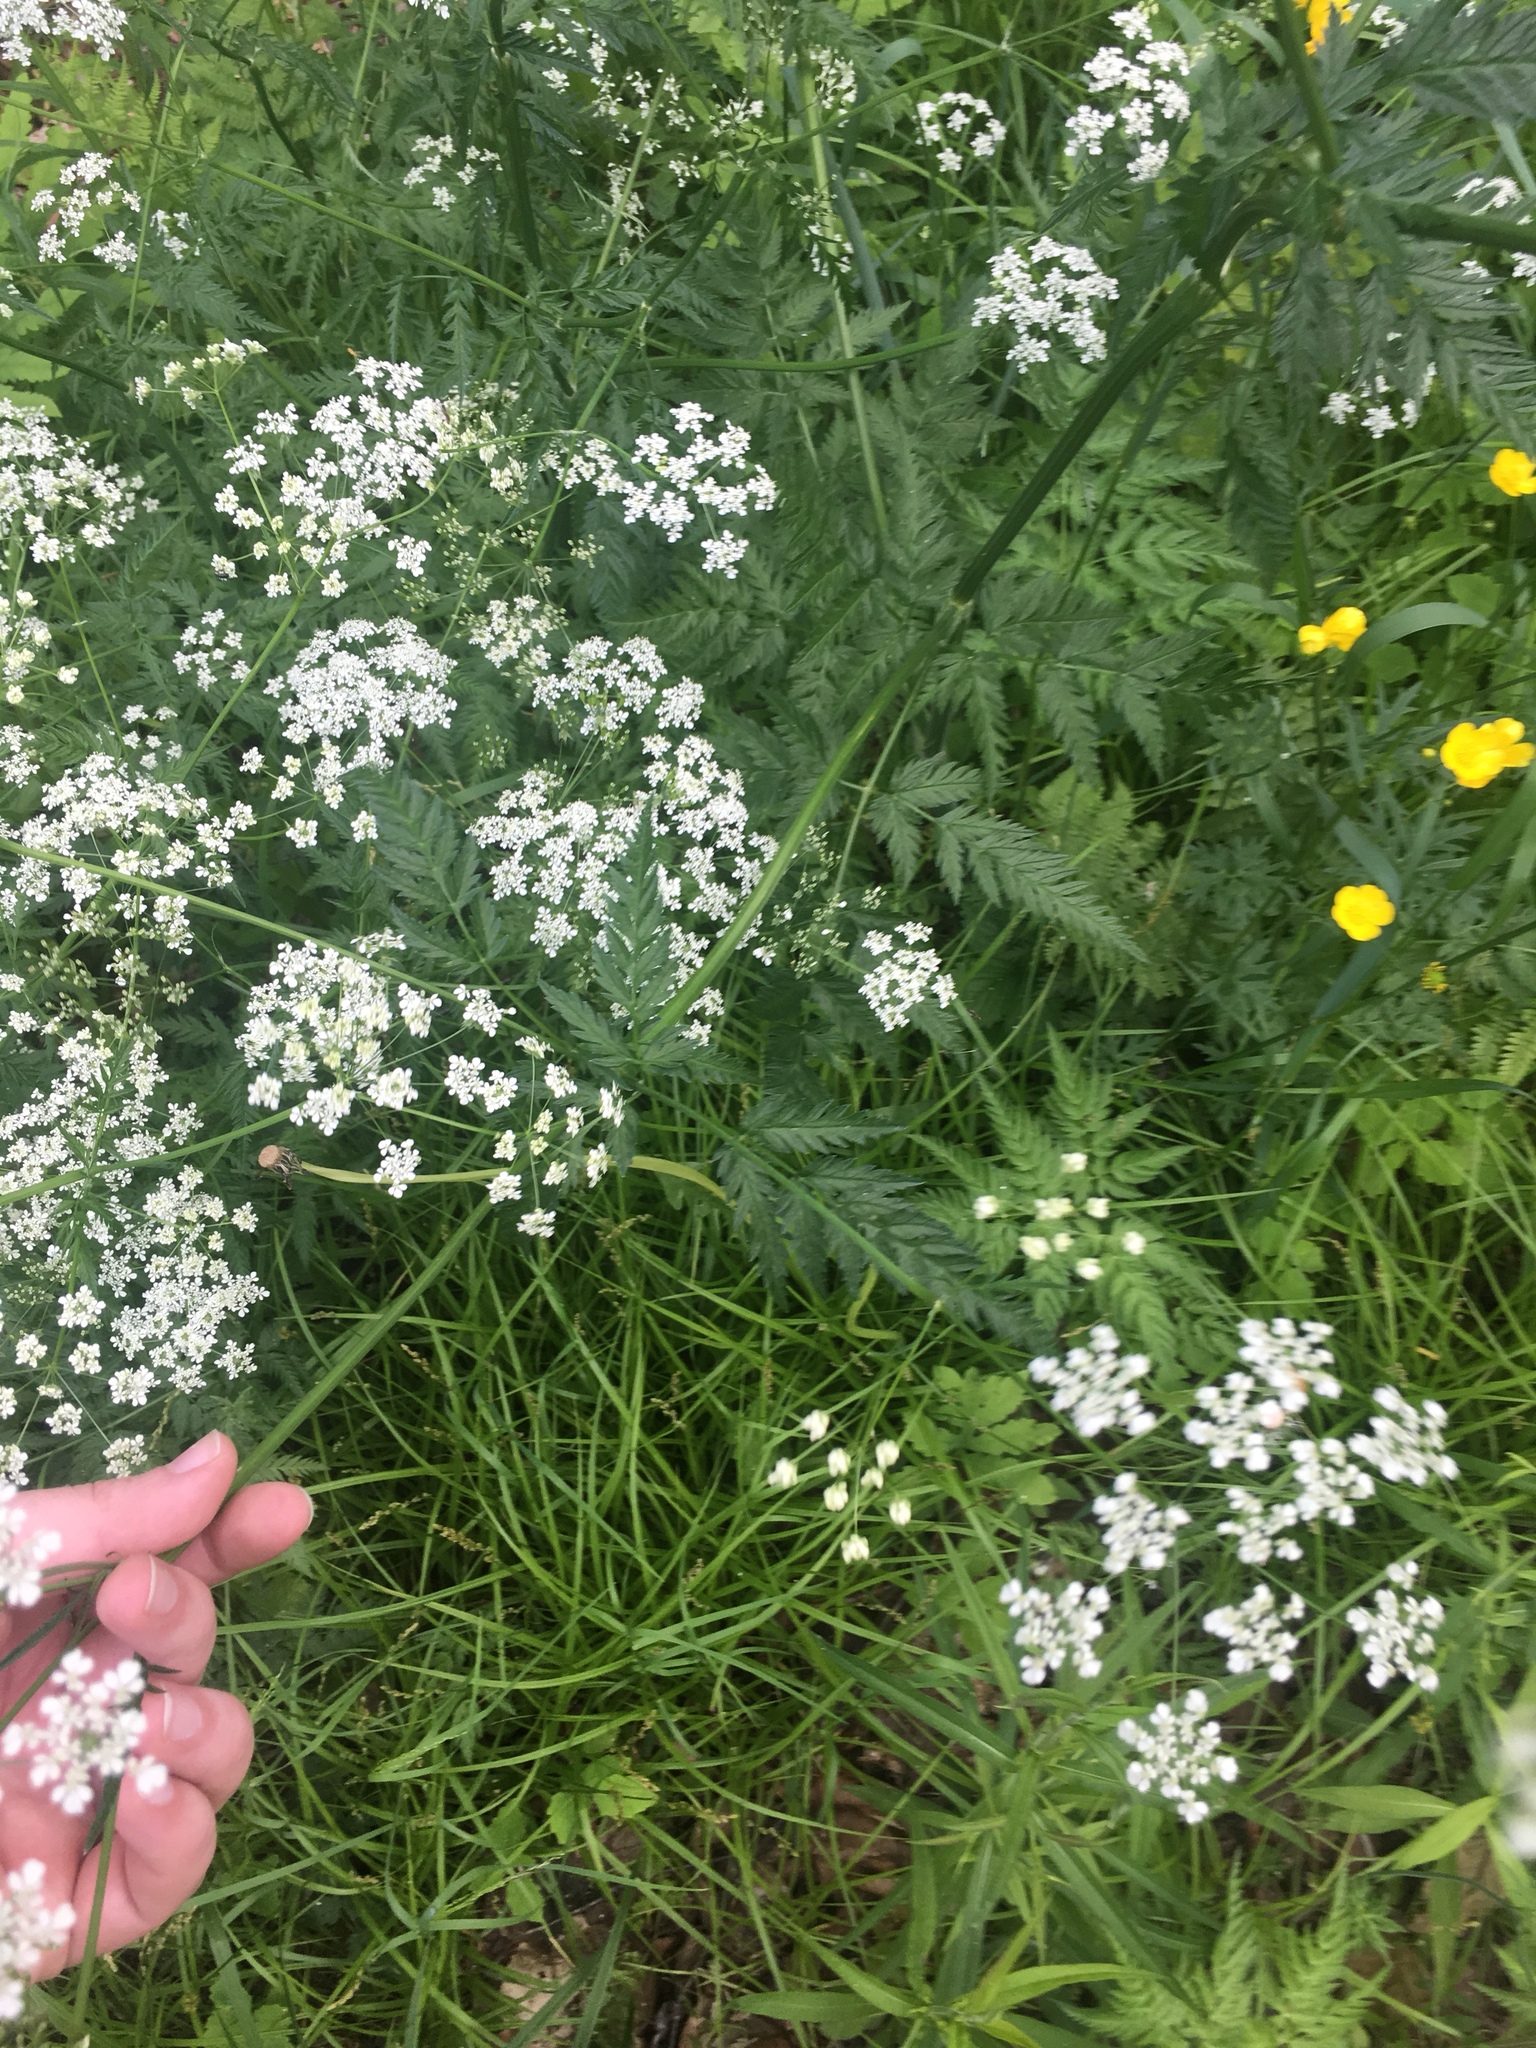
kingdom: Plantae
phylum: Tracheophyta
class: Magnoliopsida
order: Apiales
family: Apiaceae
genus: Anthriscus
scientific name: Anthriscus sylvestris
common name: Cow parsley
